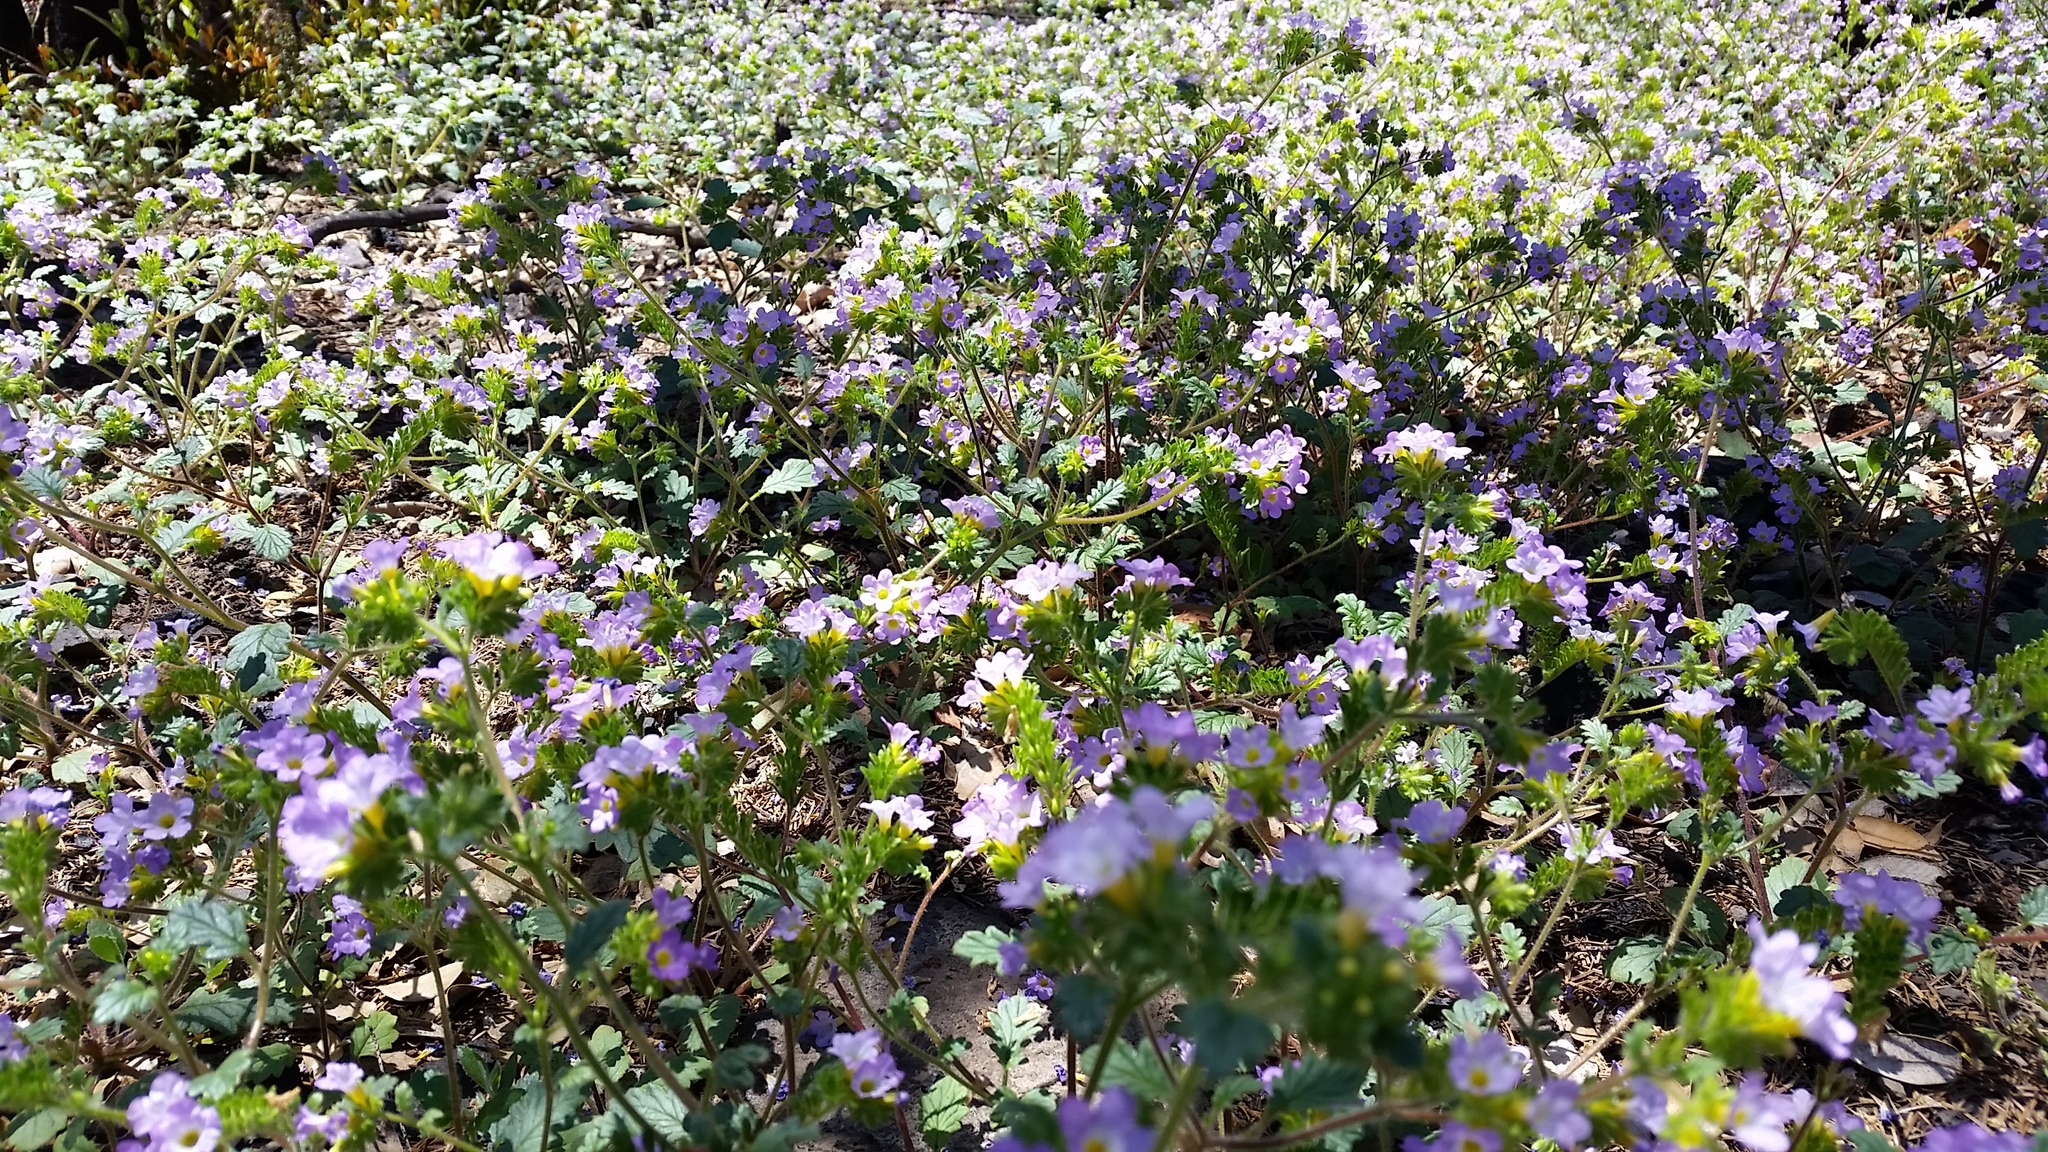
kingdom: Plantae
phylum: Tracheophyta
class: Magnoliopsida
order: Boraginales
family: Hydrophyllaceae
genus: Phacelia
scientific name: Phacelia suaveolens
